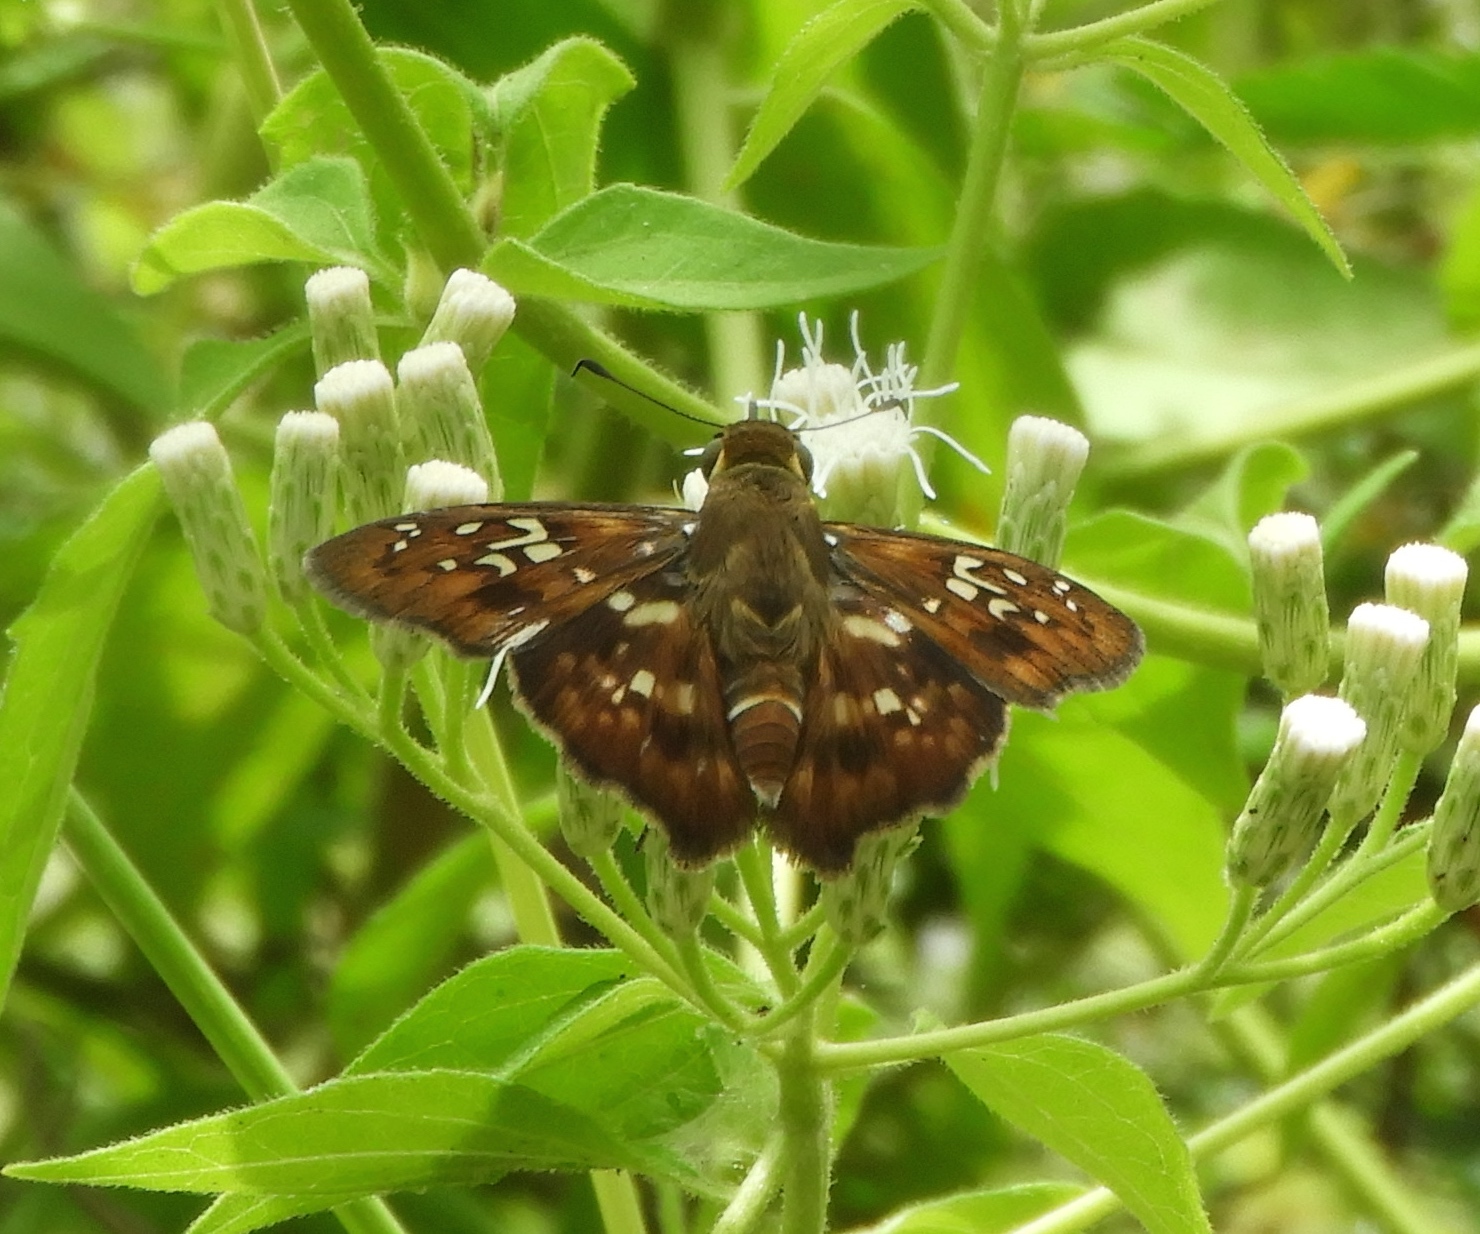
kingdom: Animalia
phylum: Arthropoda
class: Insecta
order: Lepidoptera
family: Hesperiidae
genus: Udranomia
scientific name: Udranomia kikkawai
